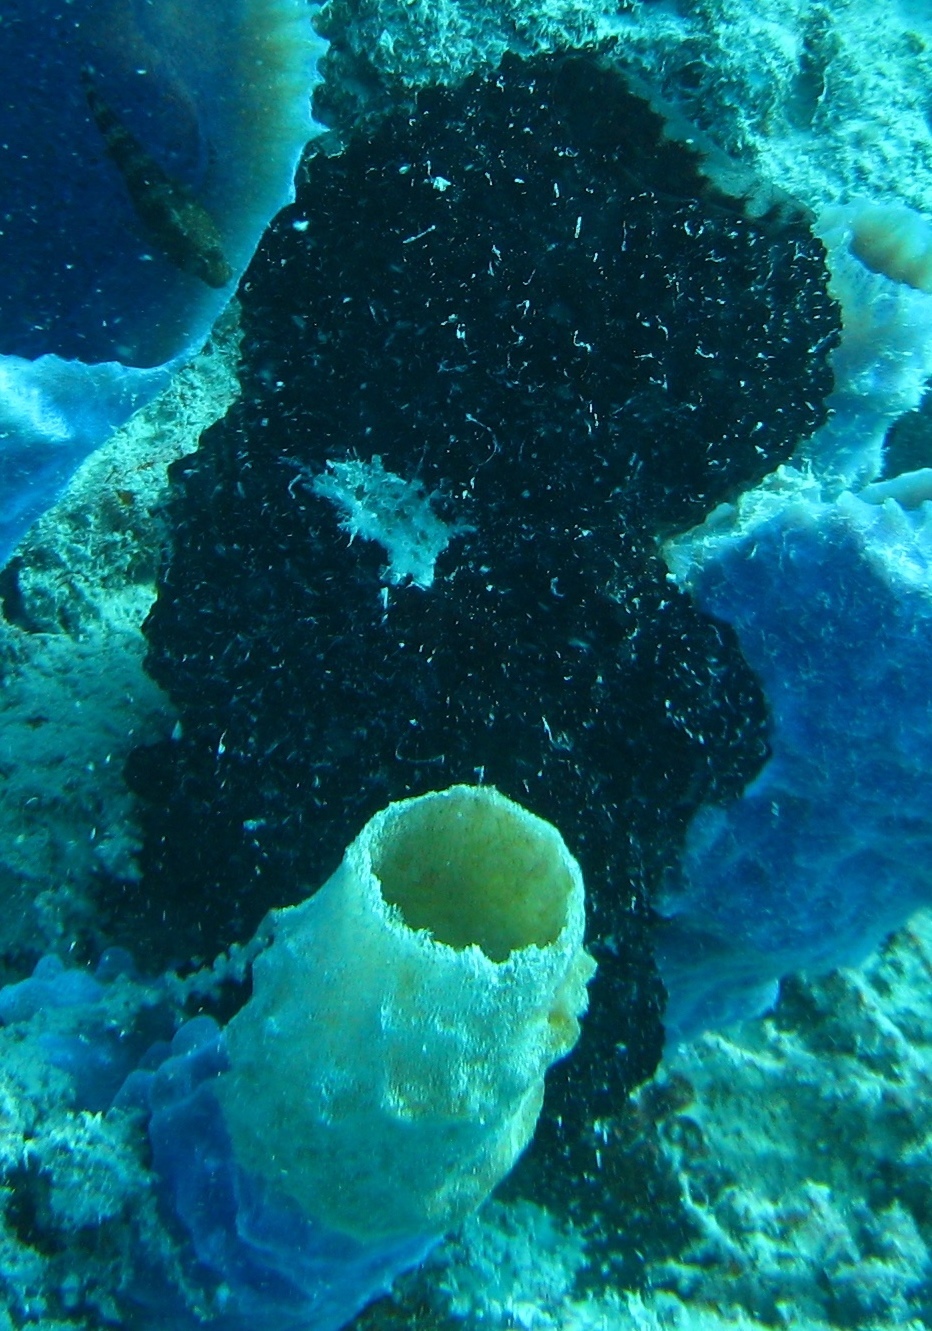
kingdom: Animalia
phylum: Porifera
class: Demospongiae
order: Poecilosclerida
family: Mycalidae
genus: Mycale
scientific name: Mycale laxissima
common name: Strawberry vase sponge
